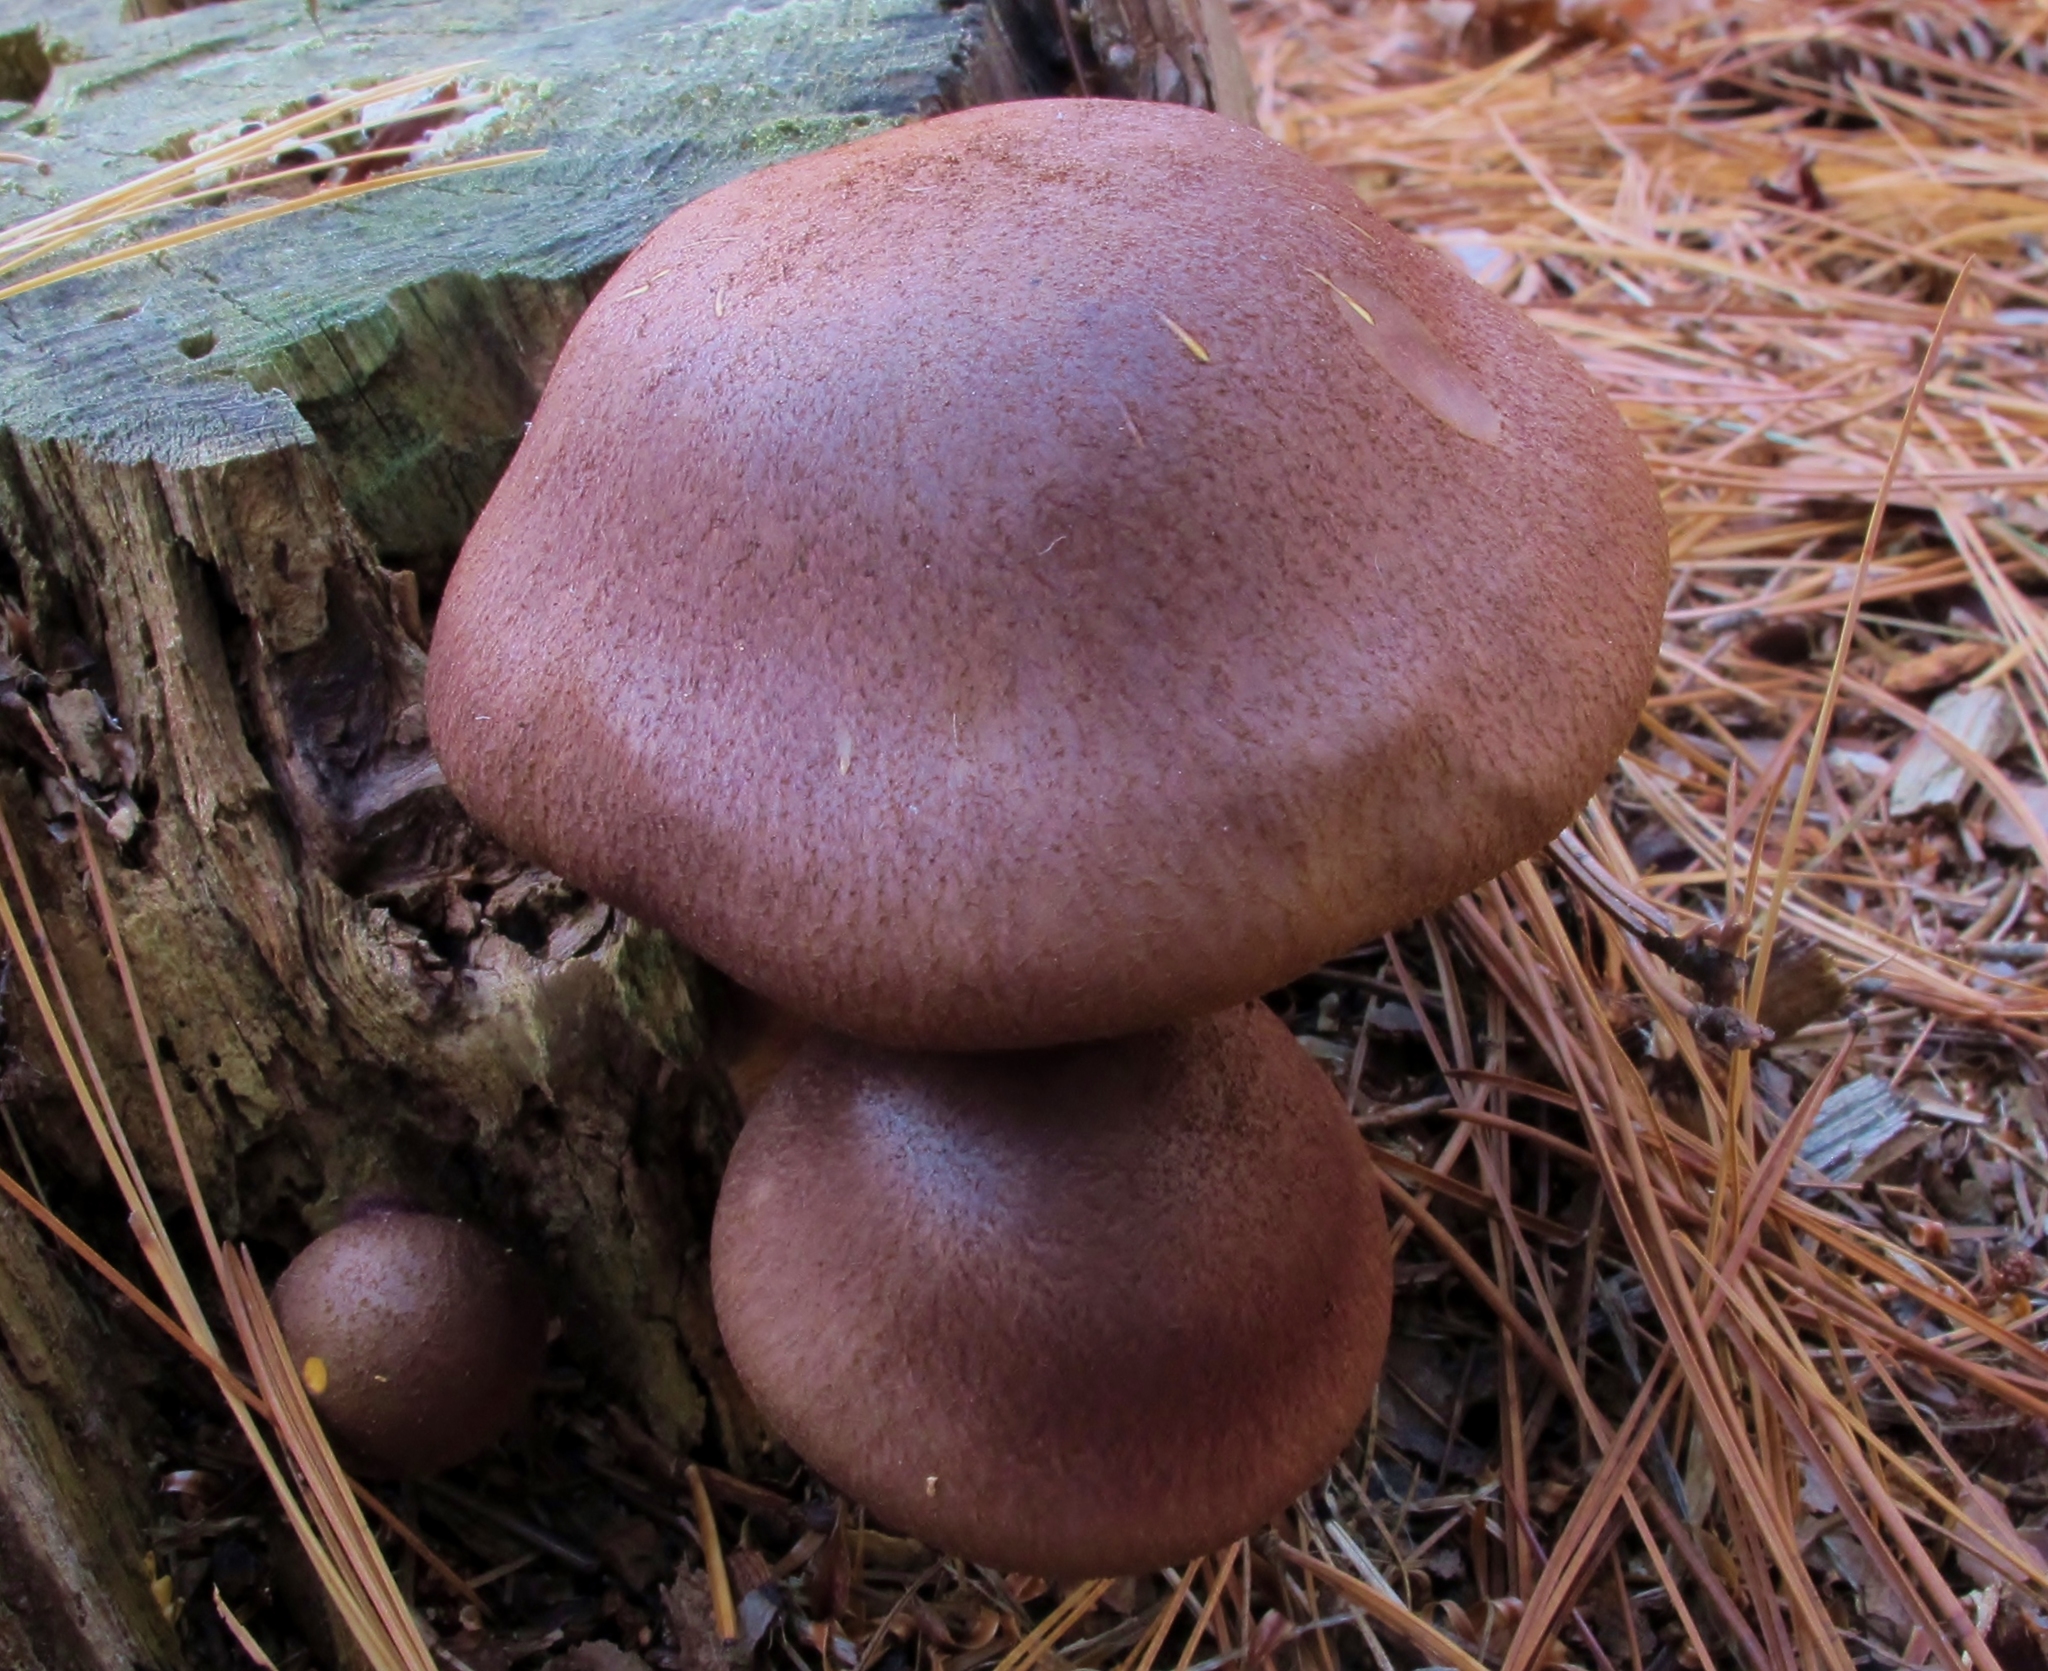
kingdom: Fungi
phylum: Basidiomycota
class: Agaricomycetes
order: Agaricales
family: Tricholomataceae
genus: Tricholomopsis
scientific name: Tricholomopsis rutilans
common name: Plums and custard
